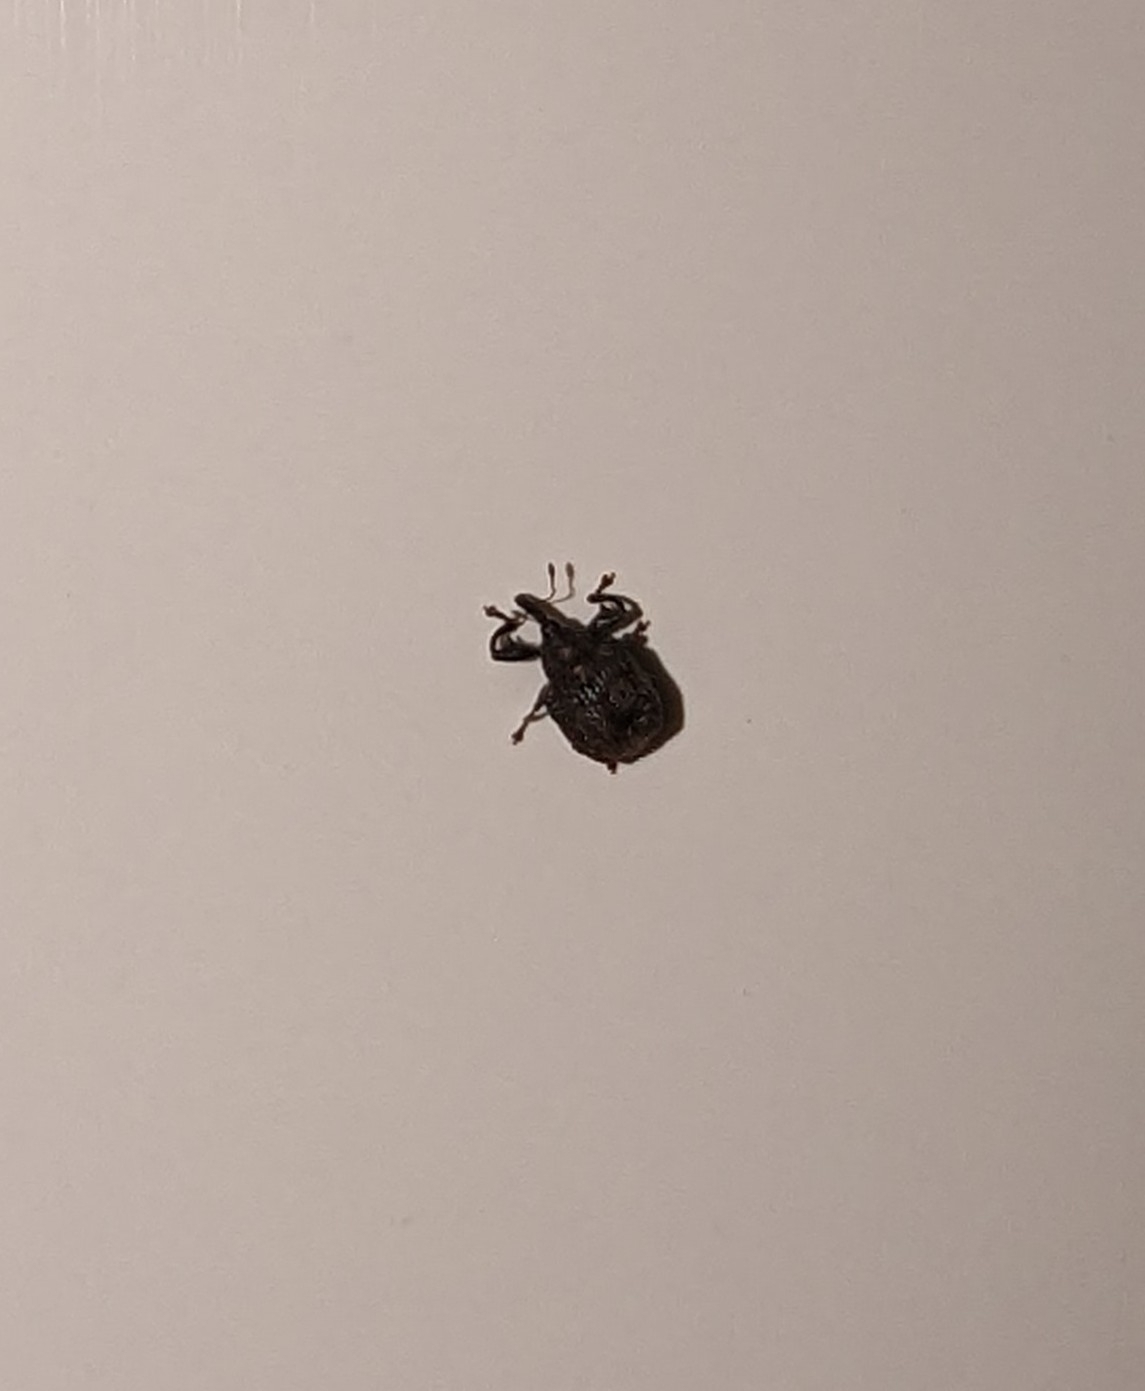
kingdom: Animalia
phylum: Arthropoda
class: Insecta
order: Coleoptera
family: Curculionidae
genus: Odontopus
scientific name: Odontopus calceatus
